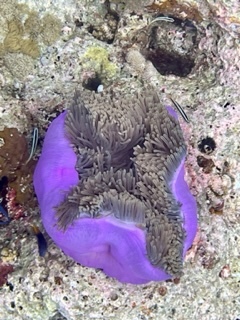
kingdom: Animalia
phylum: Cnidaria
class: Anthozoa
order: Actiniaria
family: Stichodactylidae
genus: Radianthus
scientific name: Radianthus magnifica
